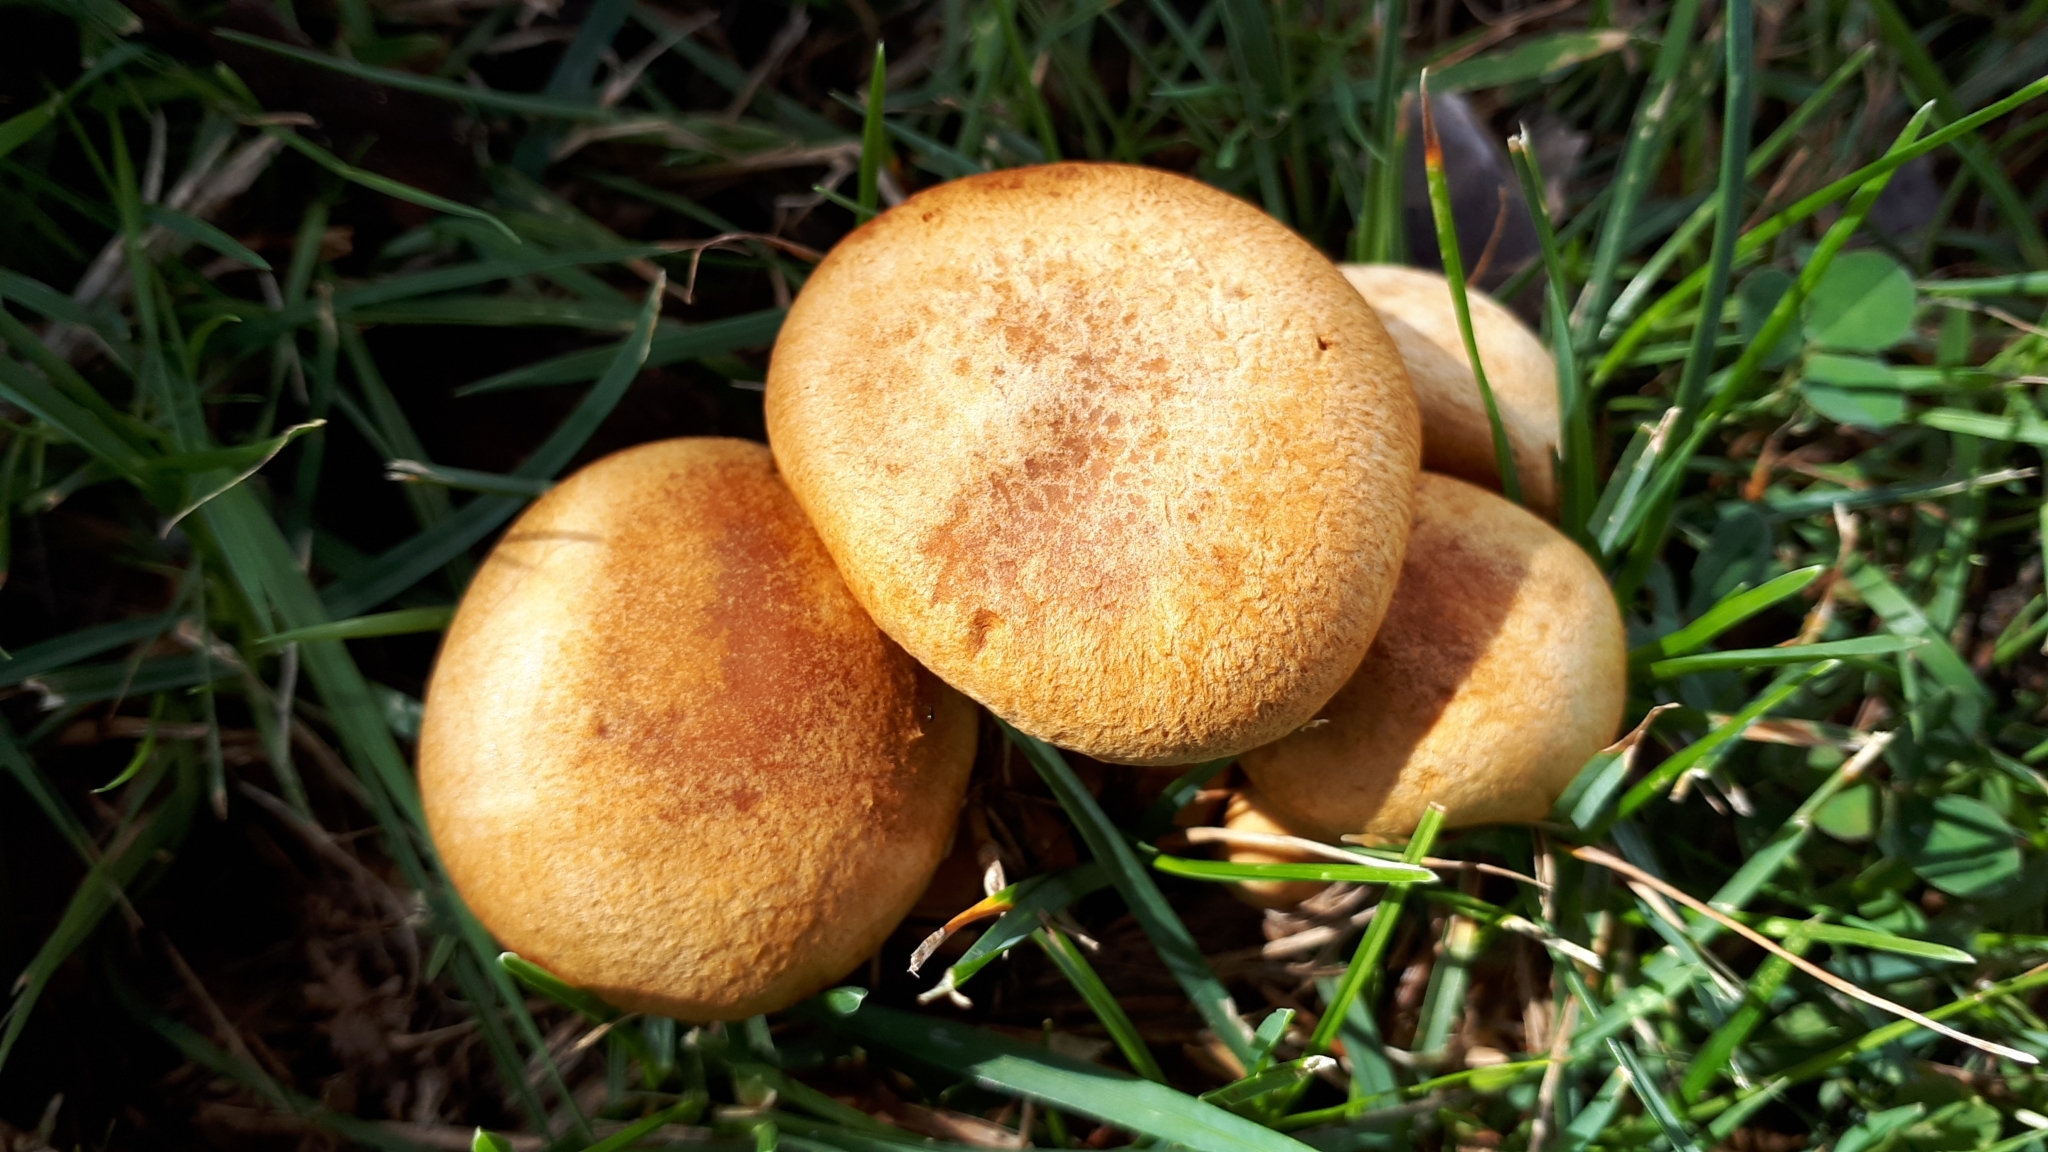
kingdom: Fungi
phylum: Basidiomycota
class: Agaricomycetes
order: Agaricales
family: Hymenogastraceae
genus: Gymnopilus
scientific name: Gymnopilus junonius
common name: Spectacular rustgill
